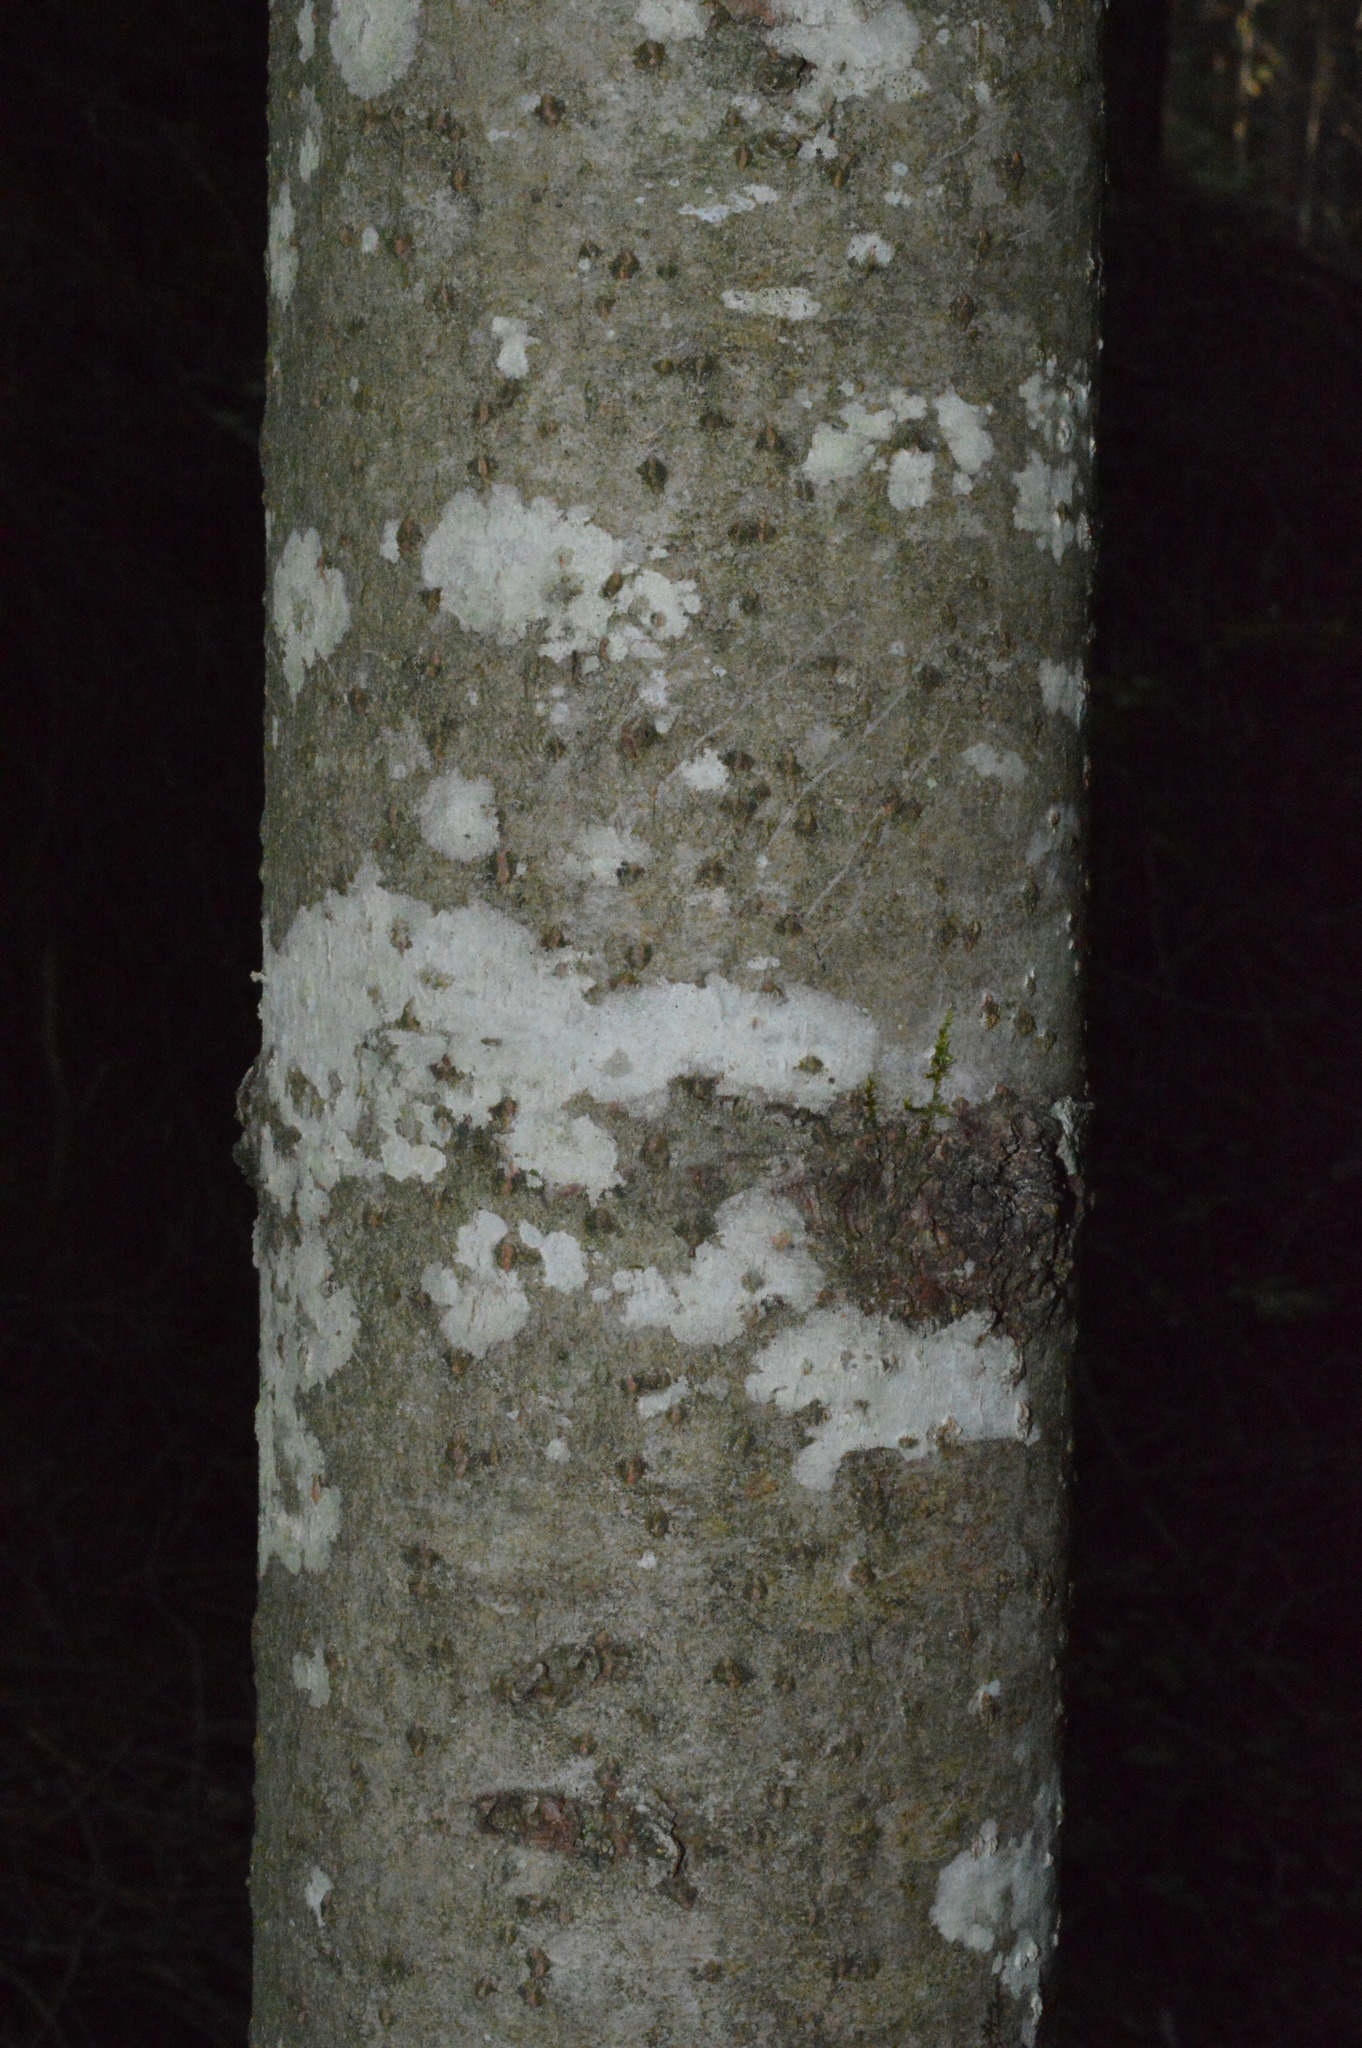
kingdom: Plantae
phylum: Tracheophyta
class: Pinopsida
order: Pinales
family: Pinaceae
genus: Abies
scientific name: Abies alba
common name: Silver fir
